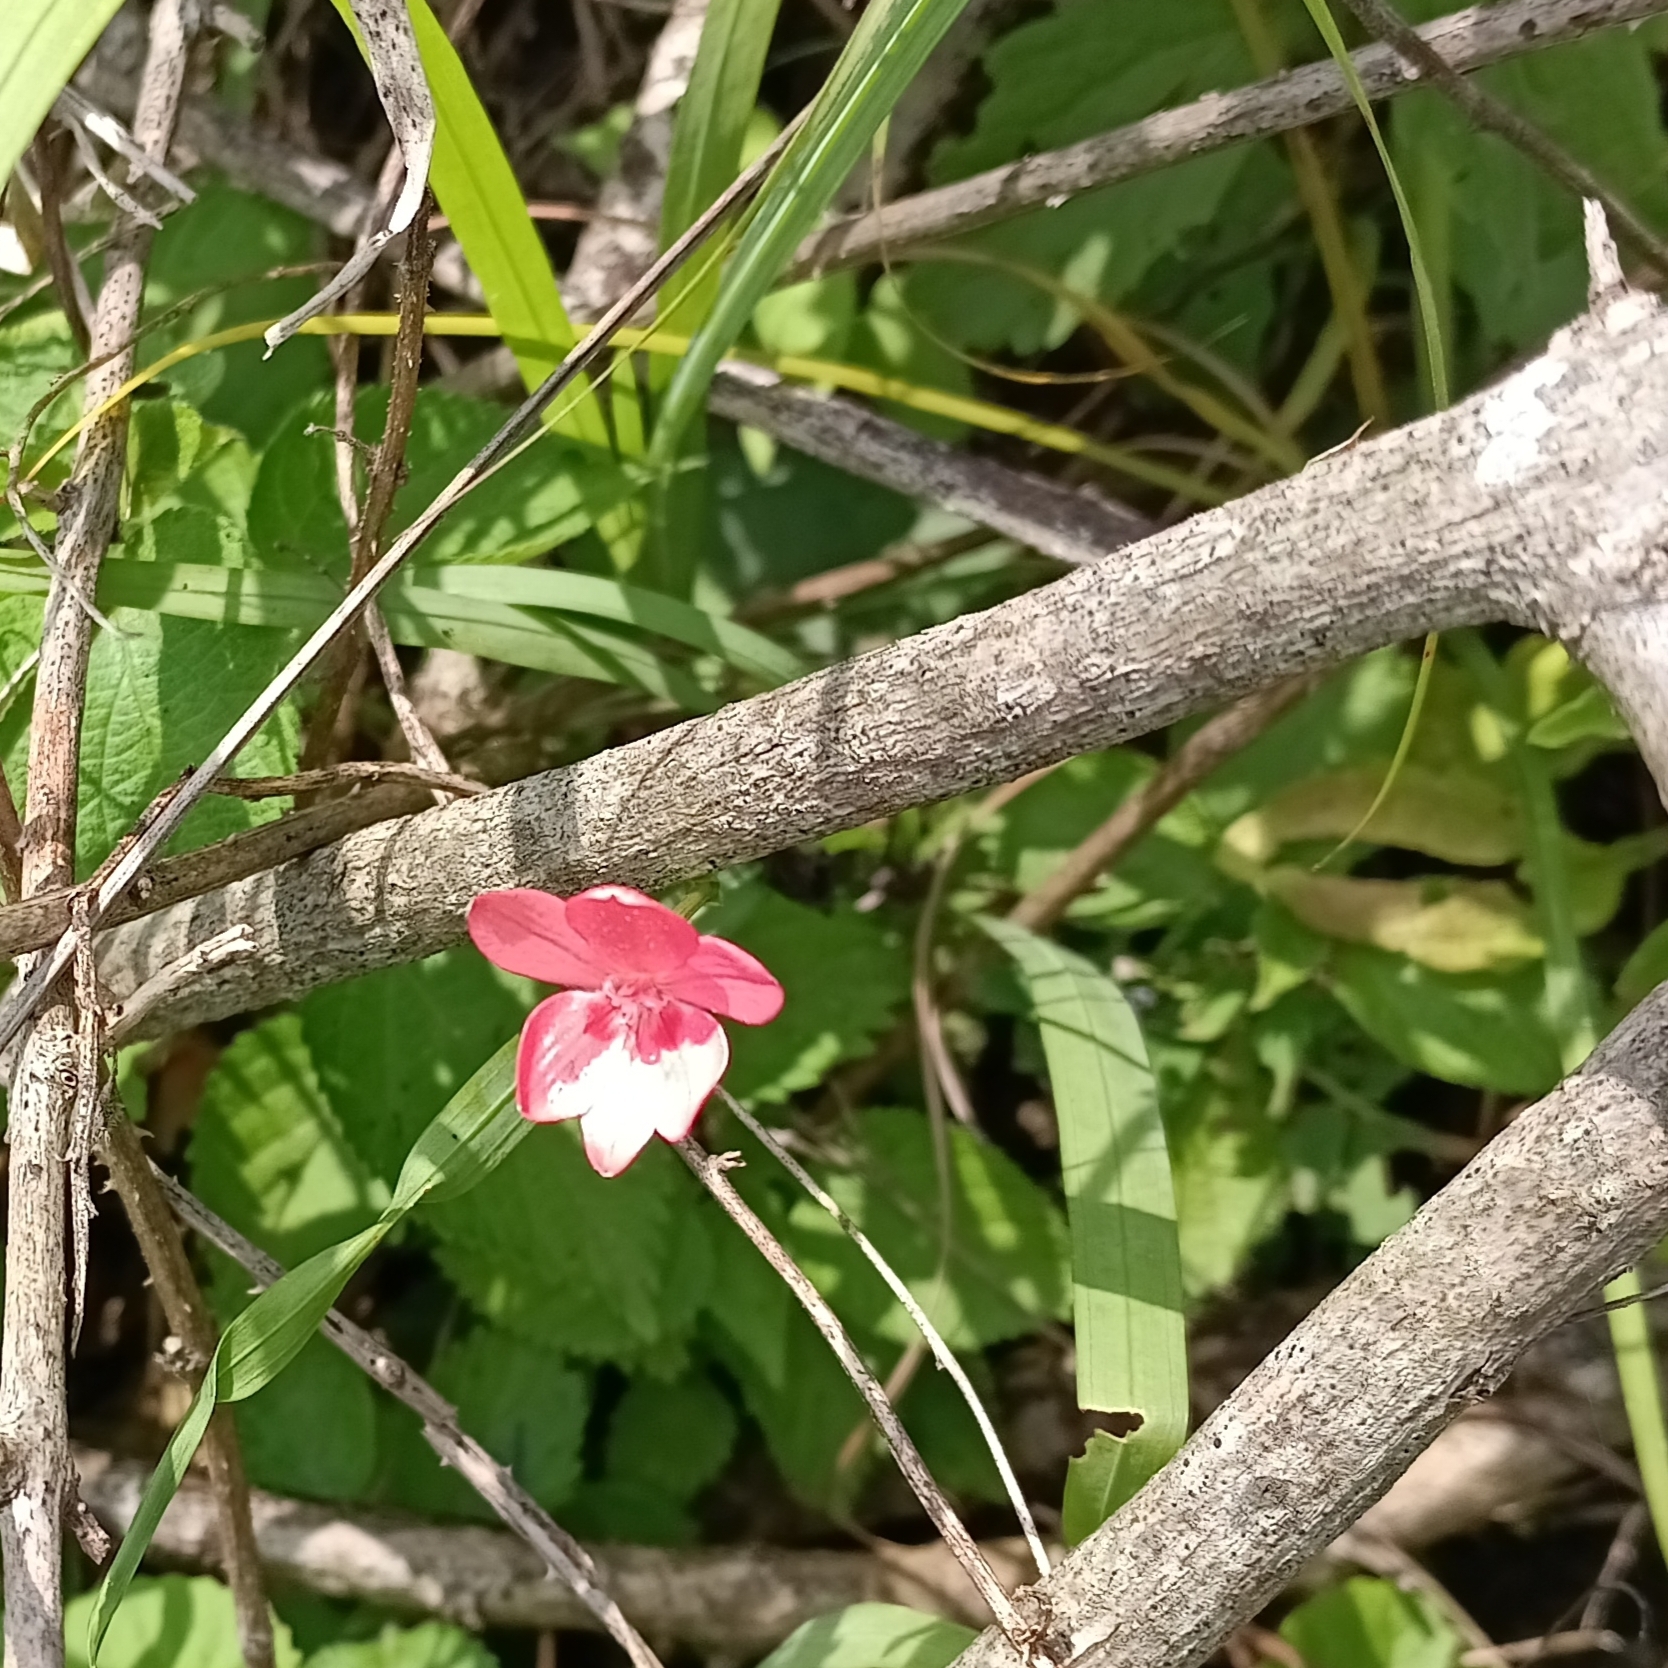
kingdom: Plantae
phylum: Tracheophyta
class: Liliopsida
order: Asparagales
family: Iridaceae
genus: Freesia
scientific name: Freesia laxa
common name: False freesia
